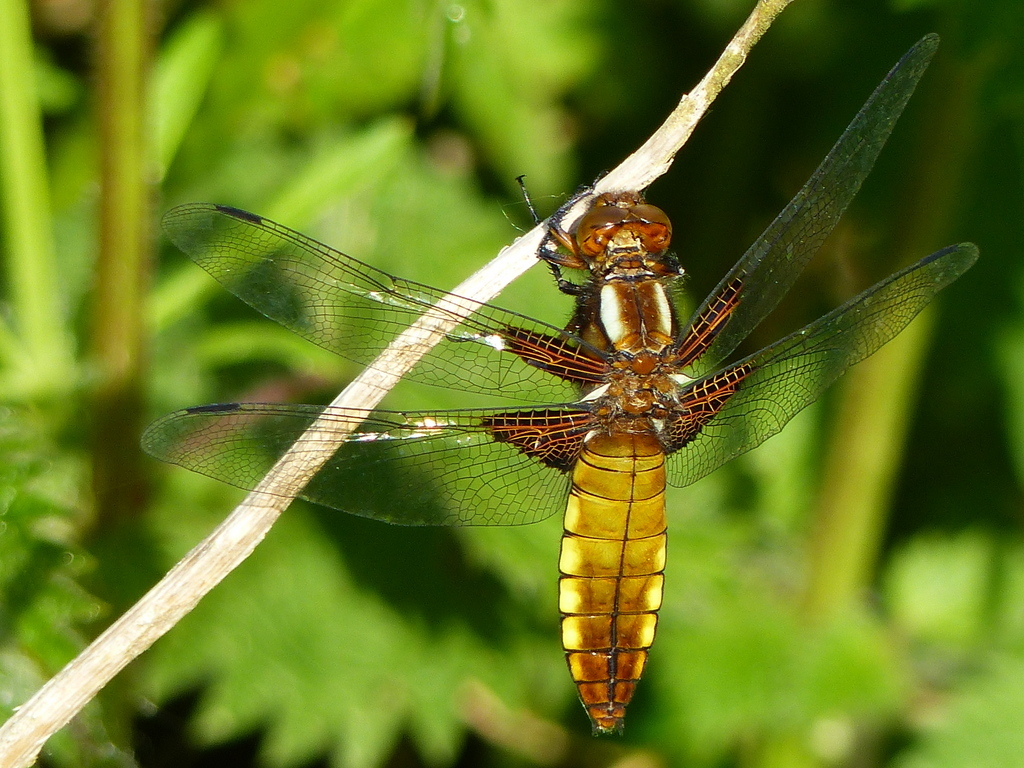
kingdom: Animalia
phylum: Arthropoda
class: Insecta
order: Odonata
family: Libellulidae
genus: Libellula
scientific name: Libellula depressa
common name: Broad-bodied chaser
